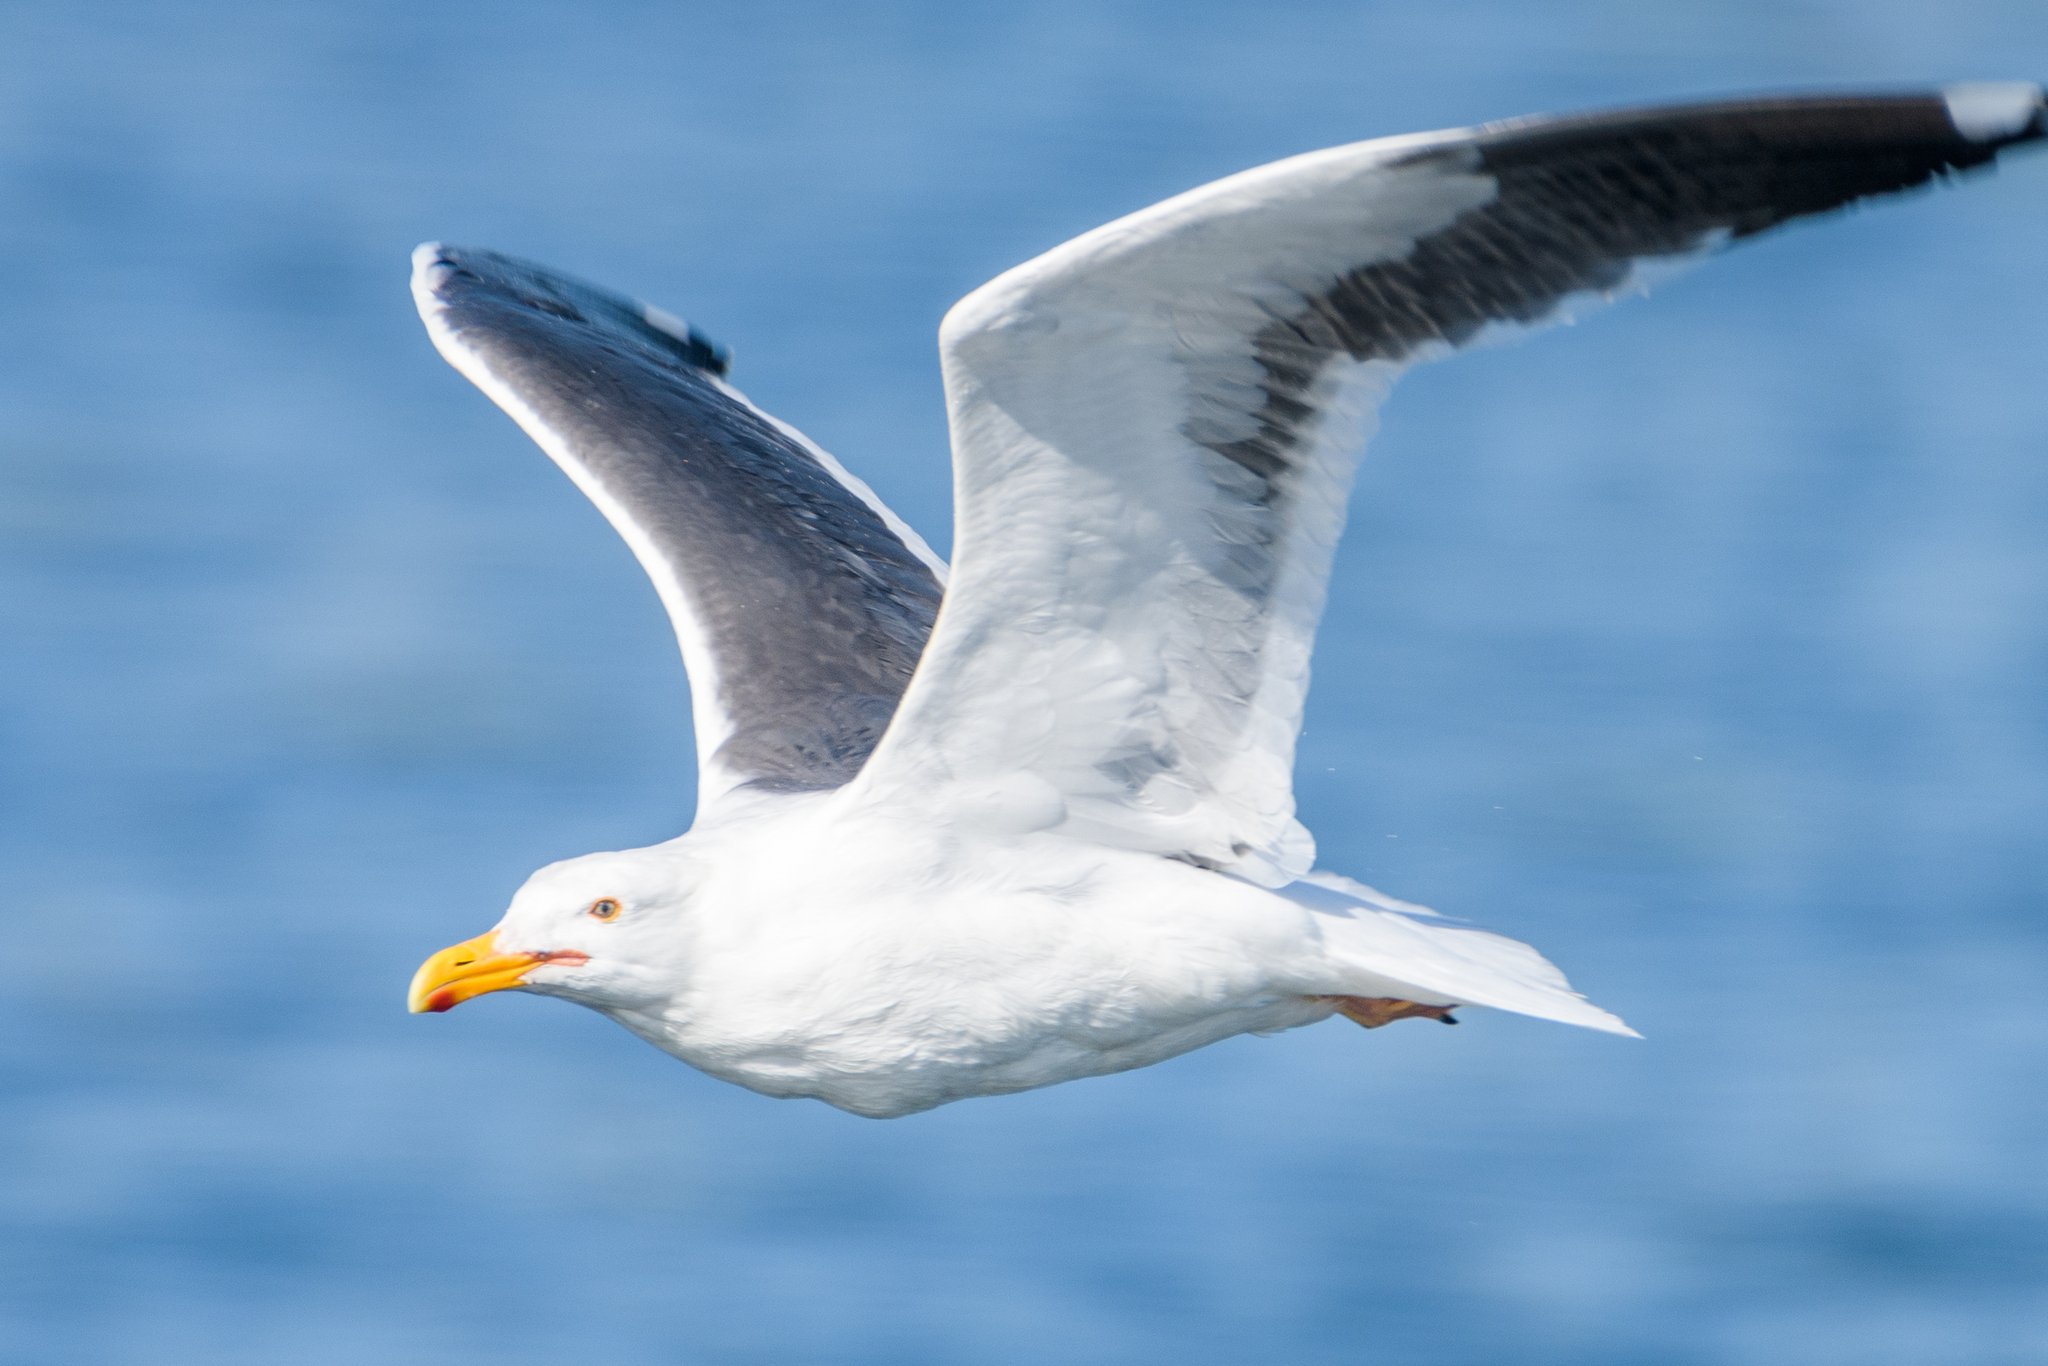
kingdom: Animalia
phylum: Chordata
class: Aves
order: Charadriiformes
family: Laridae
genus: Larus
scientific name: Larus occidentalis
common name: Western gull
